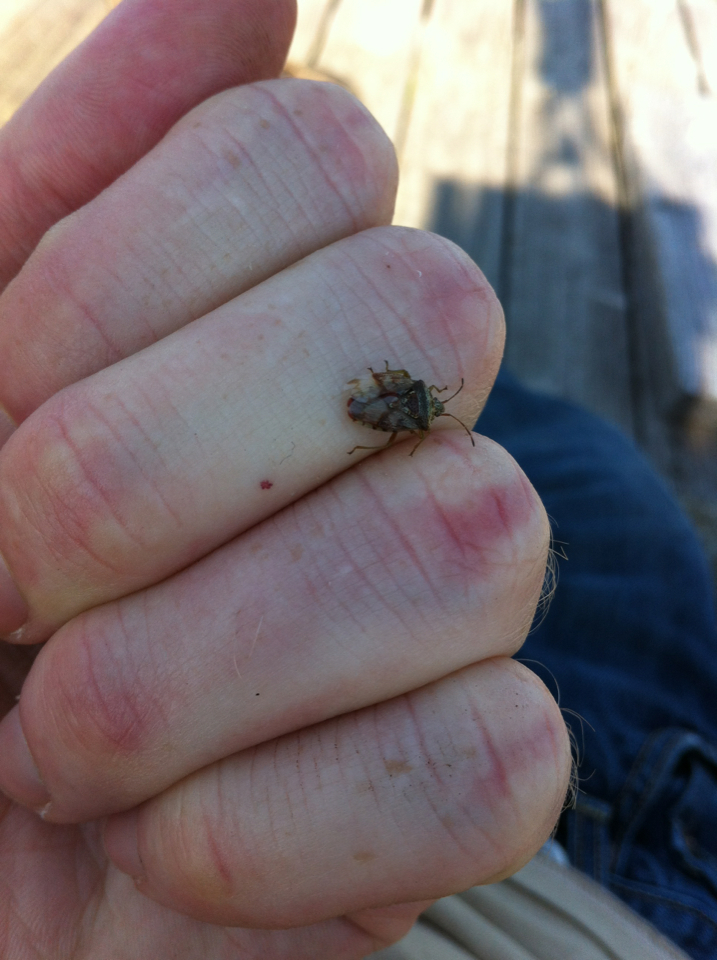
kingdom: Animalia
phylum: Arthropoda
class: Insecta
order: Hemiptera
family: Acanthosomatidae
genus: Elasmucha
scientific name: Elasmucha lateralis
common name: Shield bug
